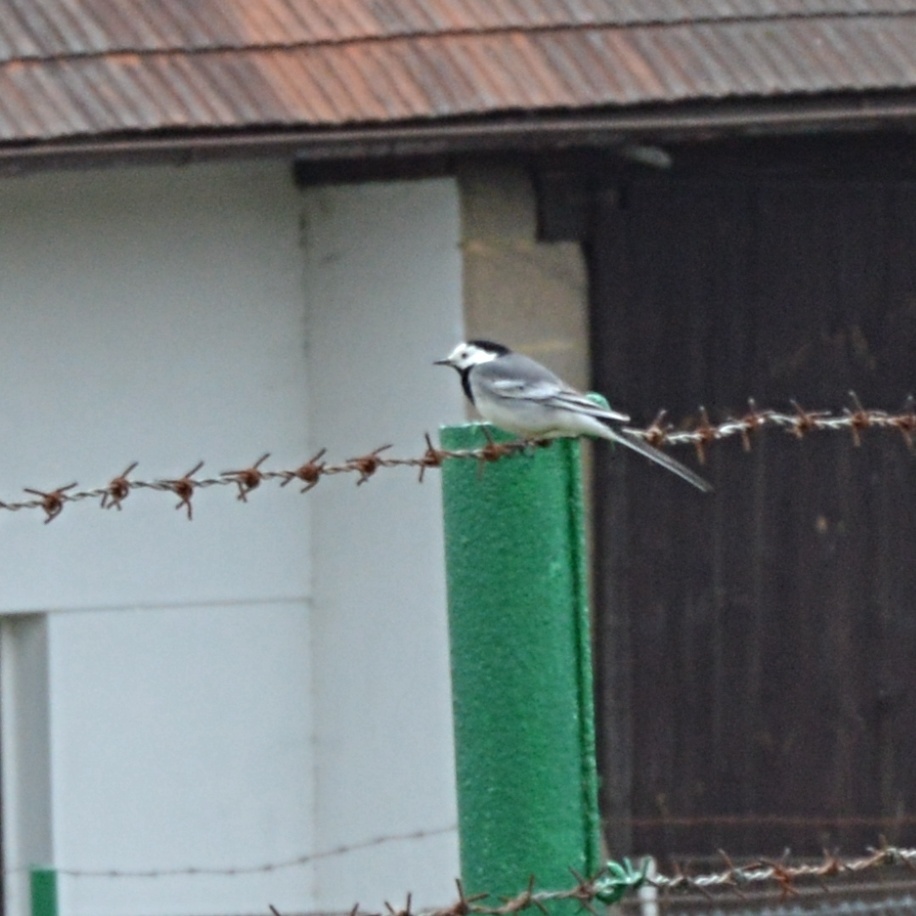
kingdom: Animalia
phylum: Chordata
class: Aves
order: Passeriformes
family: Motacillidae
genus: Motacilla
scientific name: Motacilla alba
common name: White wagtail
